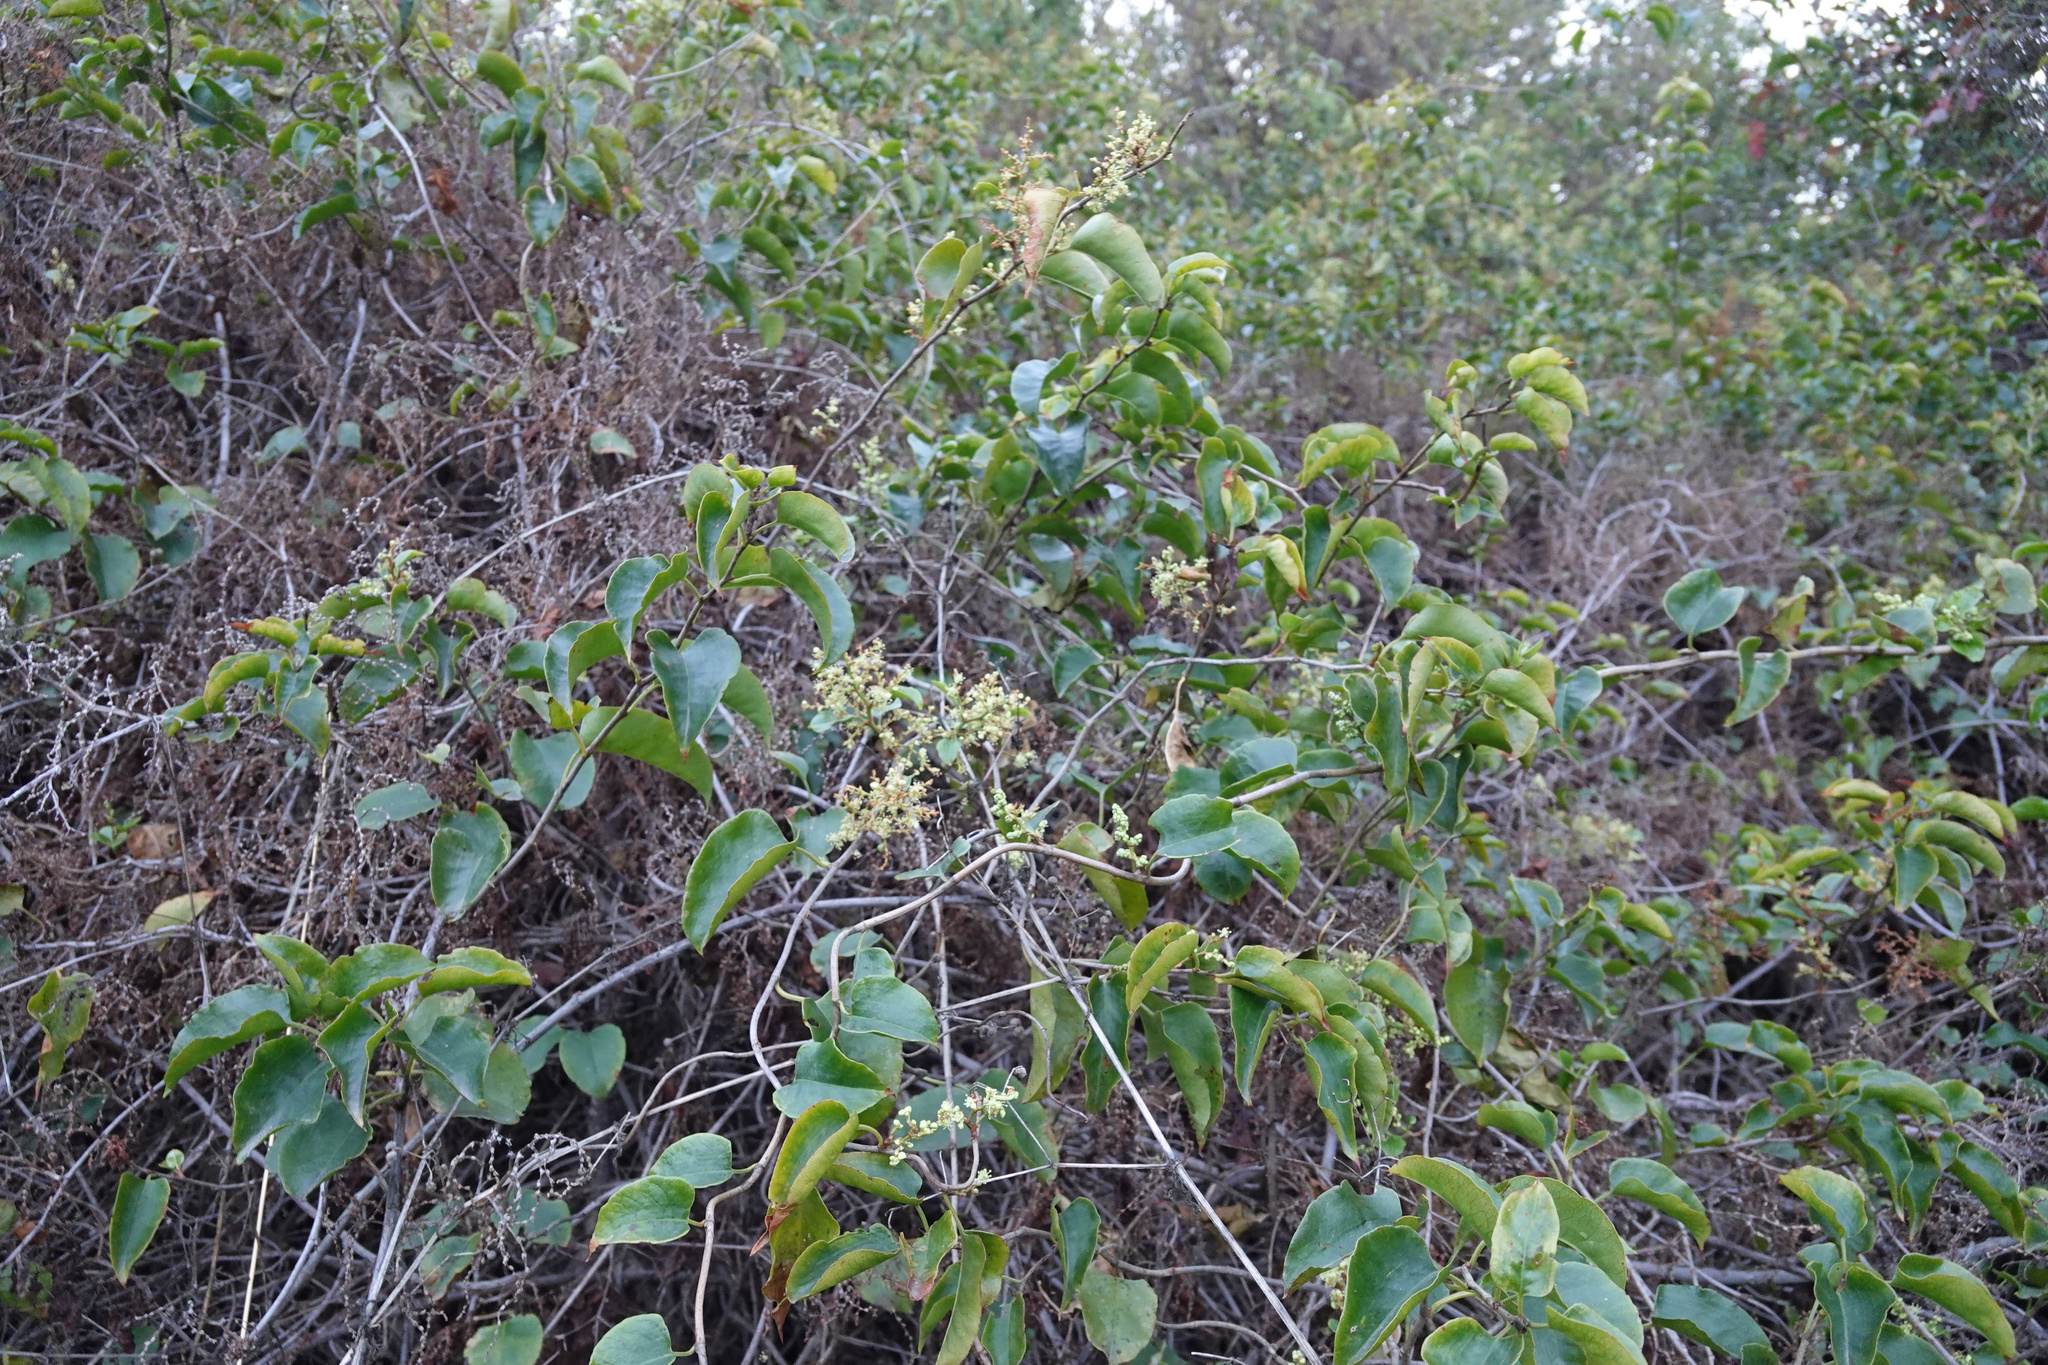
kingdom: Plantae
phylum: Tracheophyta
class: Magnoliopsida
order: Caryophyllales
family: Polygonaceae
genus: Muehlenbeckia
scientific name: Muehlenbeckia australis
